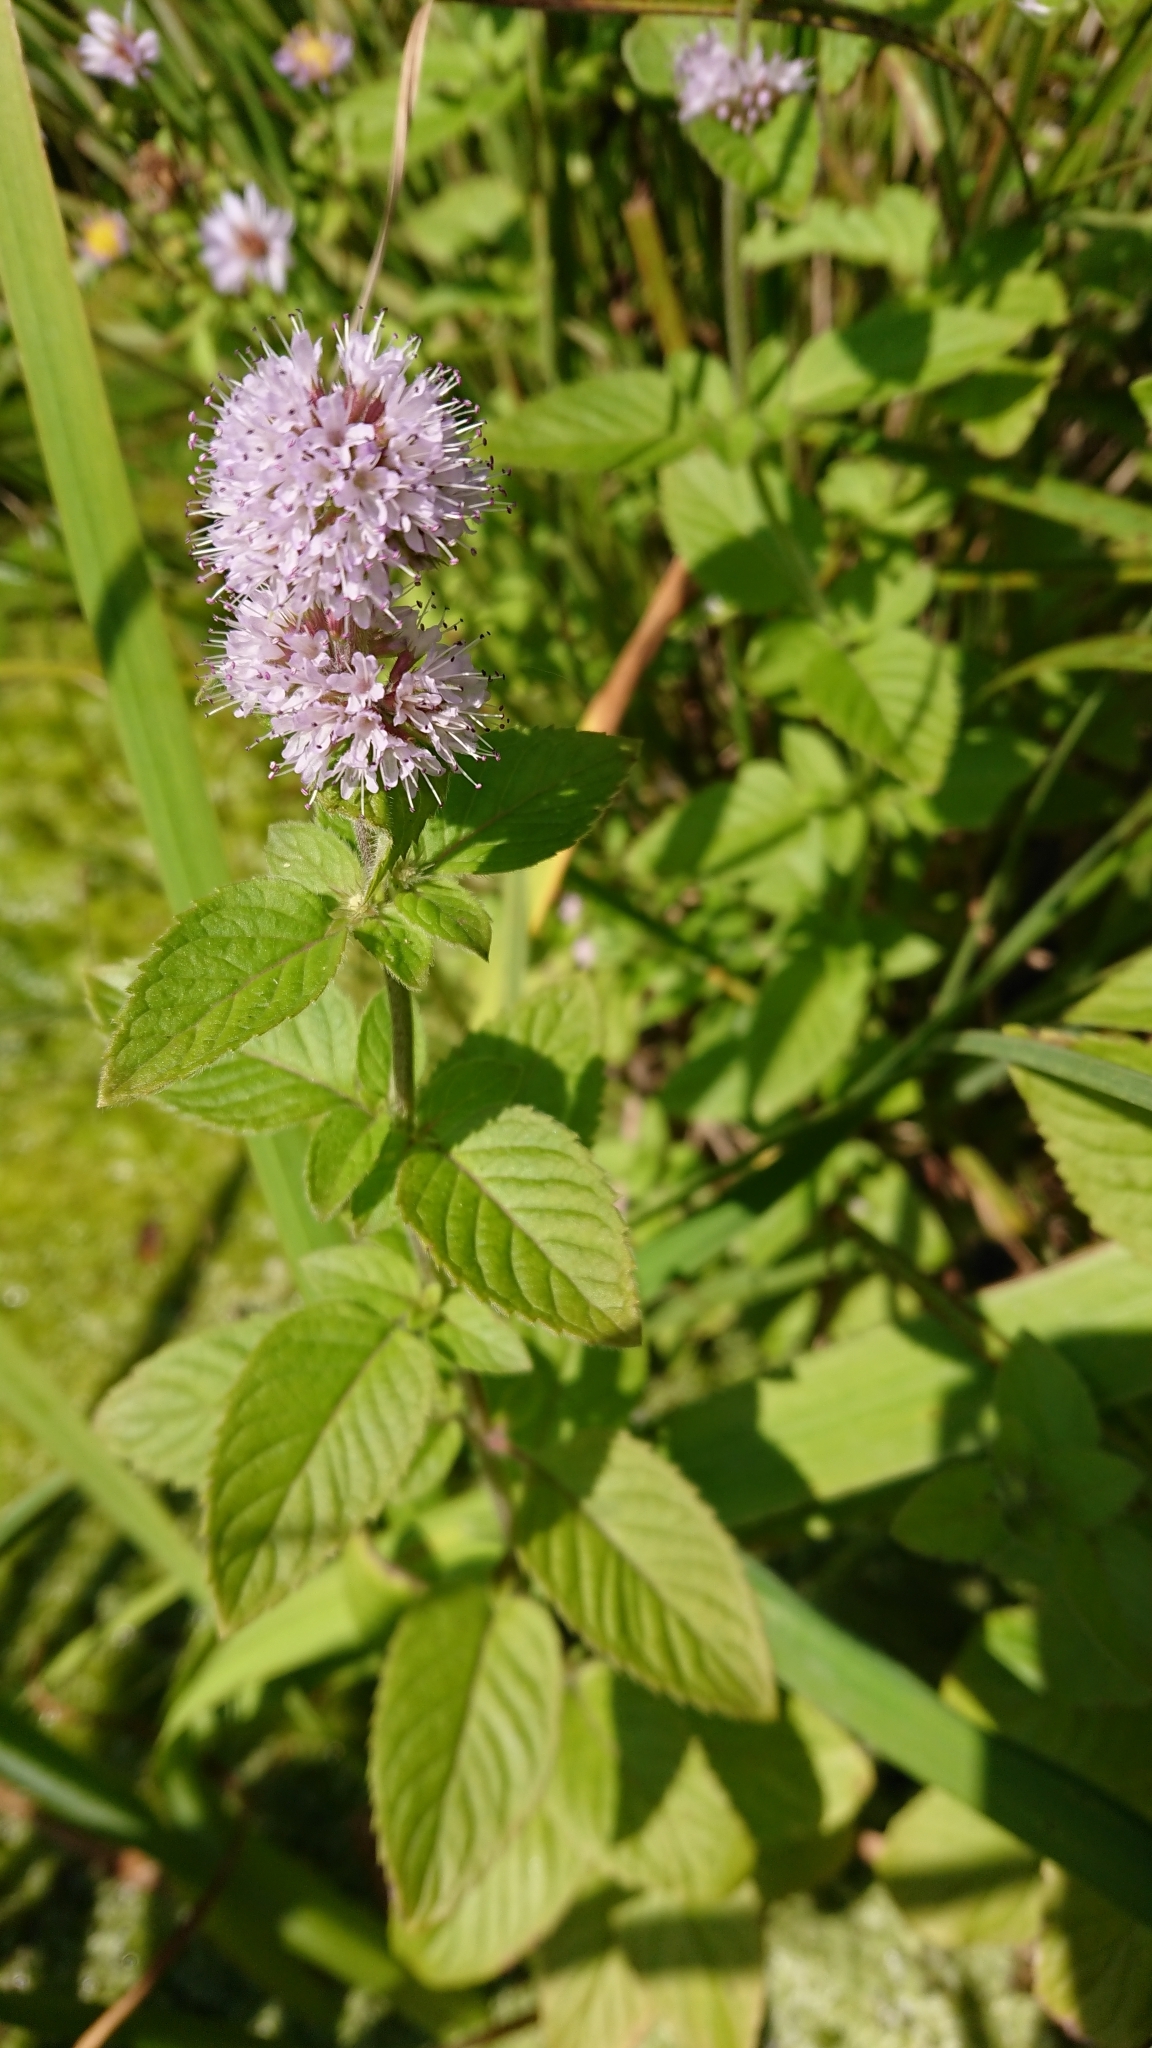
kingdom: Plantae
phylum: Tracheophyta
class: Magnoliopsida
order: Lamiales
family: Lamiaceae
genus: Mentha
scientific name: Mentha aquatica
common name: Water mint
